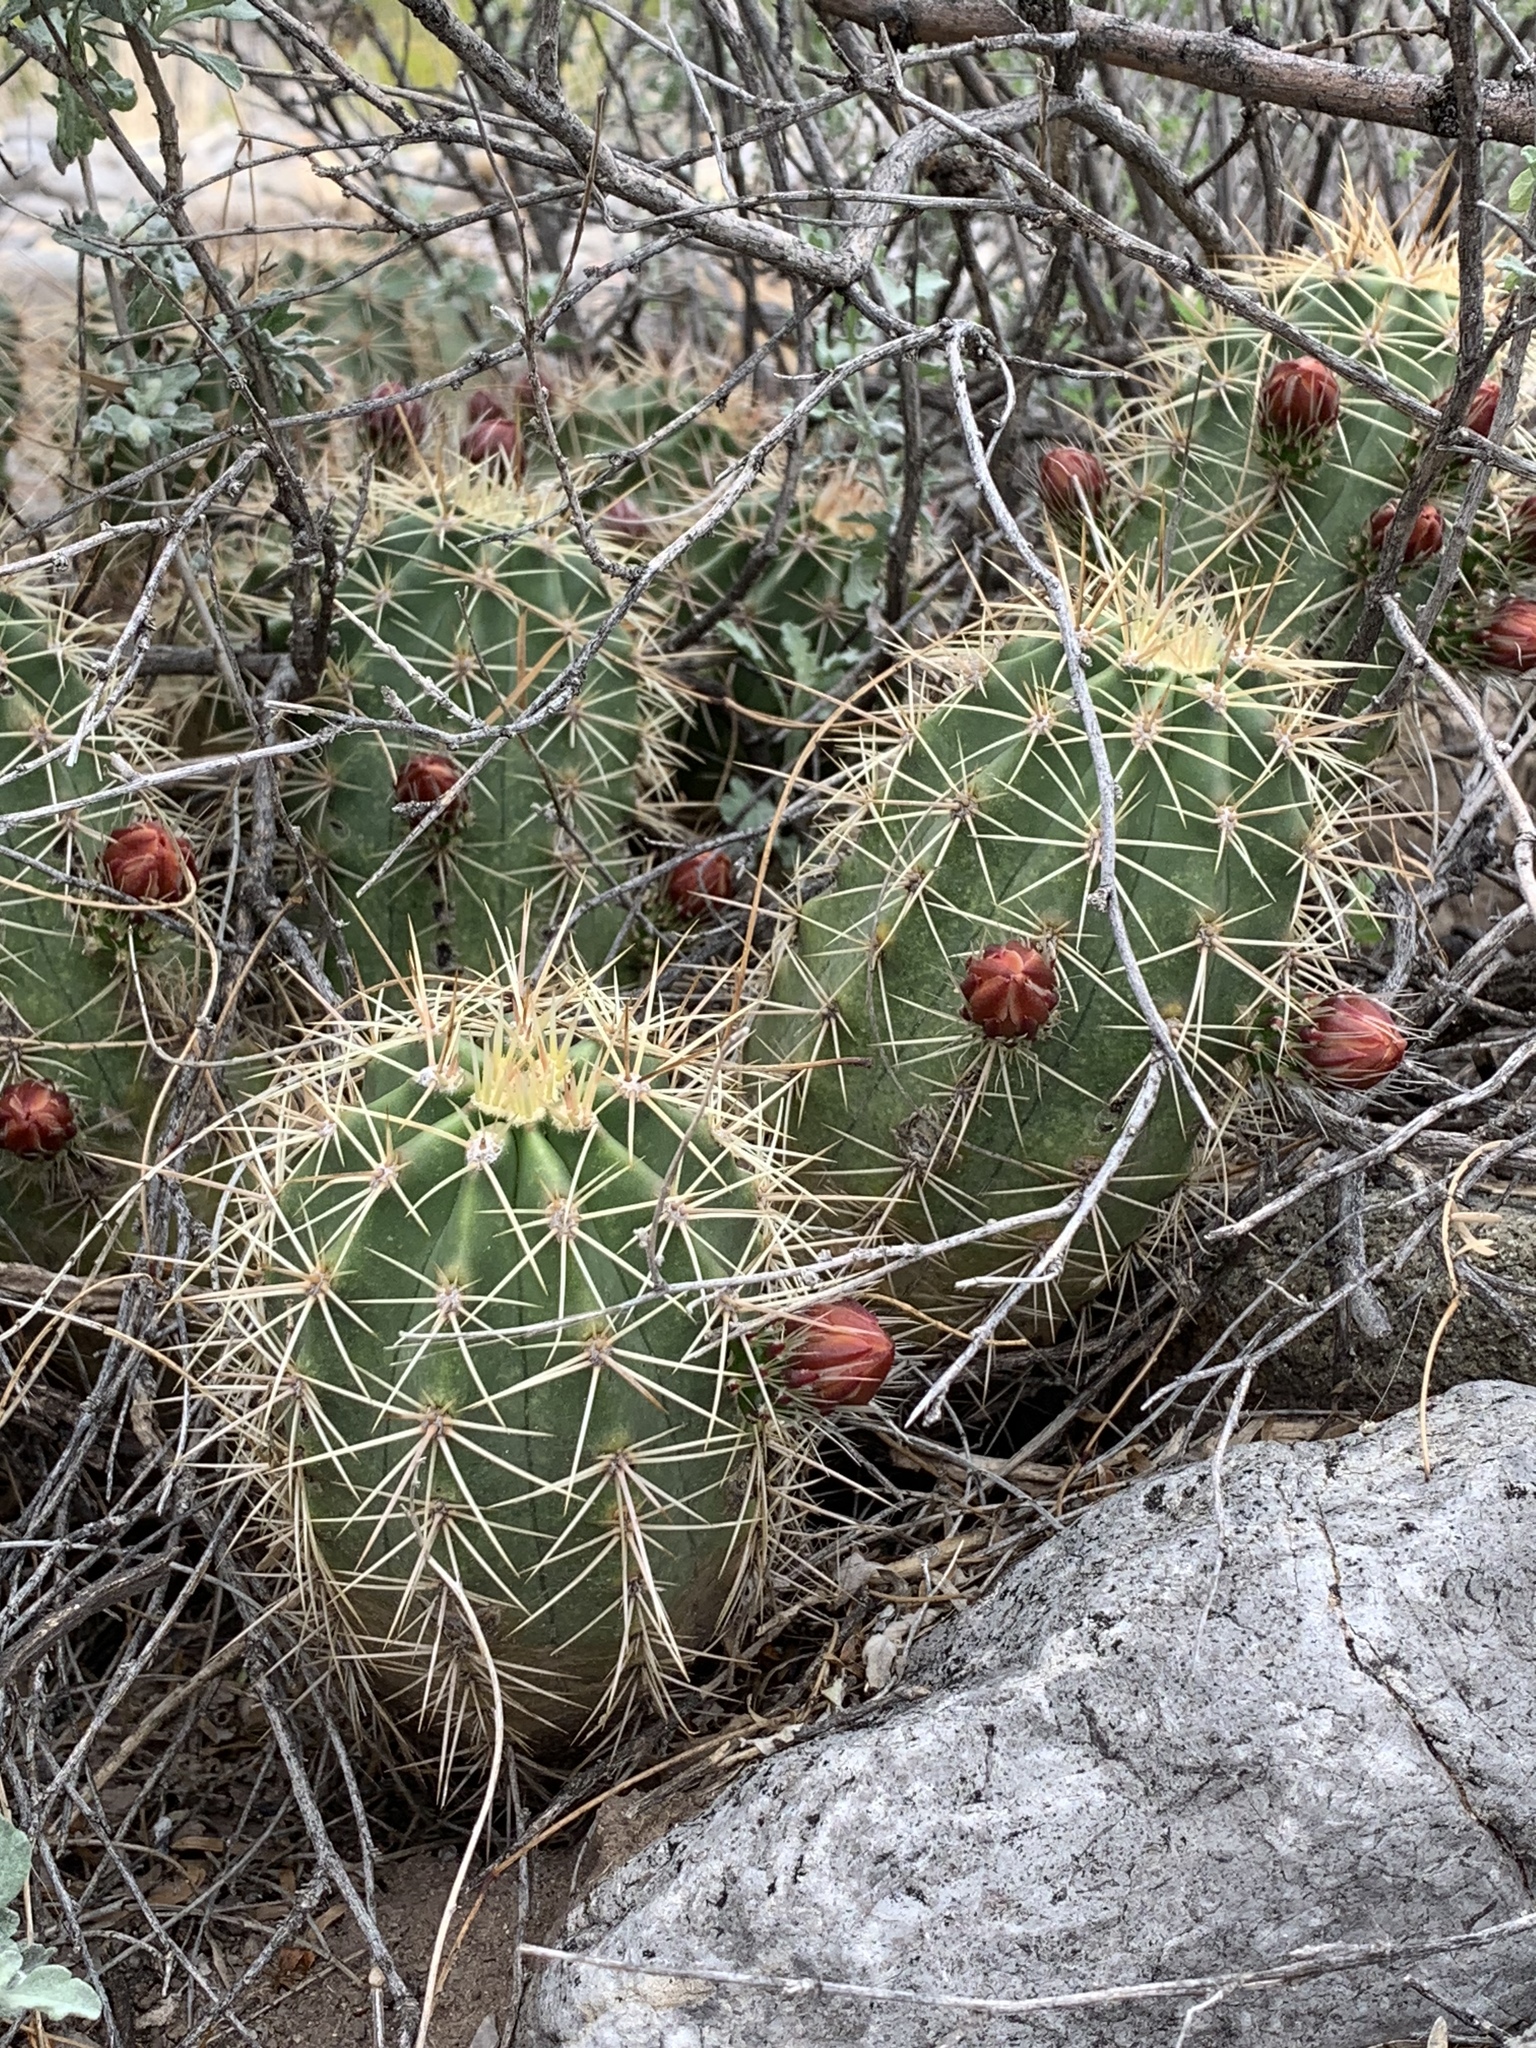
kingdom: Plantae
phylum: Tracheophyta
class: Magnoliopsida
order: Caryophyllales
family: Cactaceae
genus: Echinocereus
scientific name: Echinocereus coccineus
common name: Scarlet hedgehog cactus
